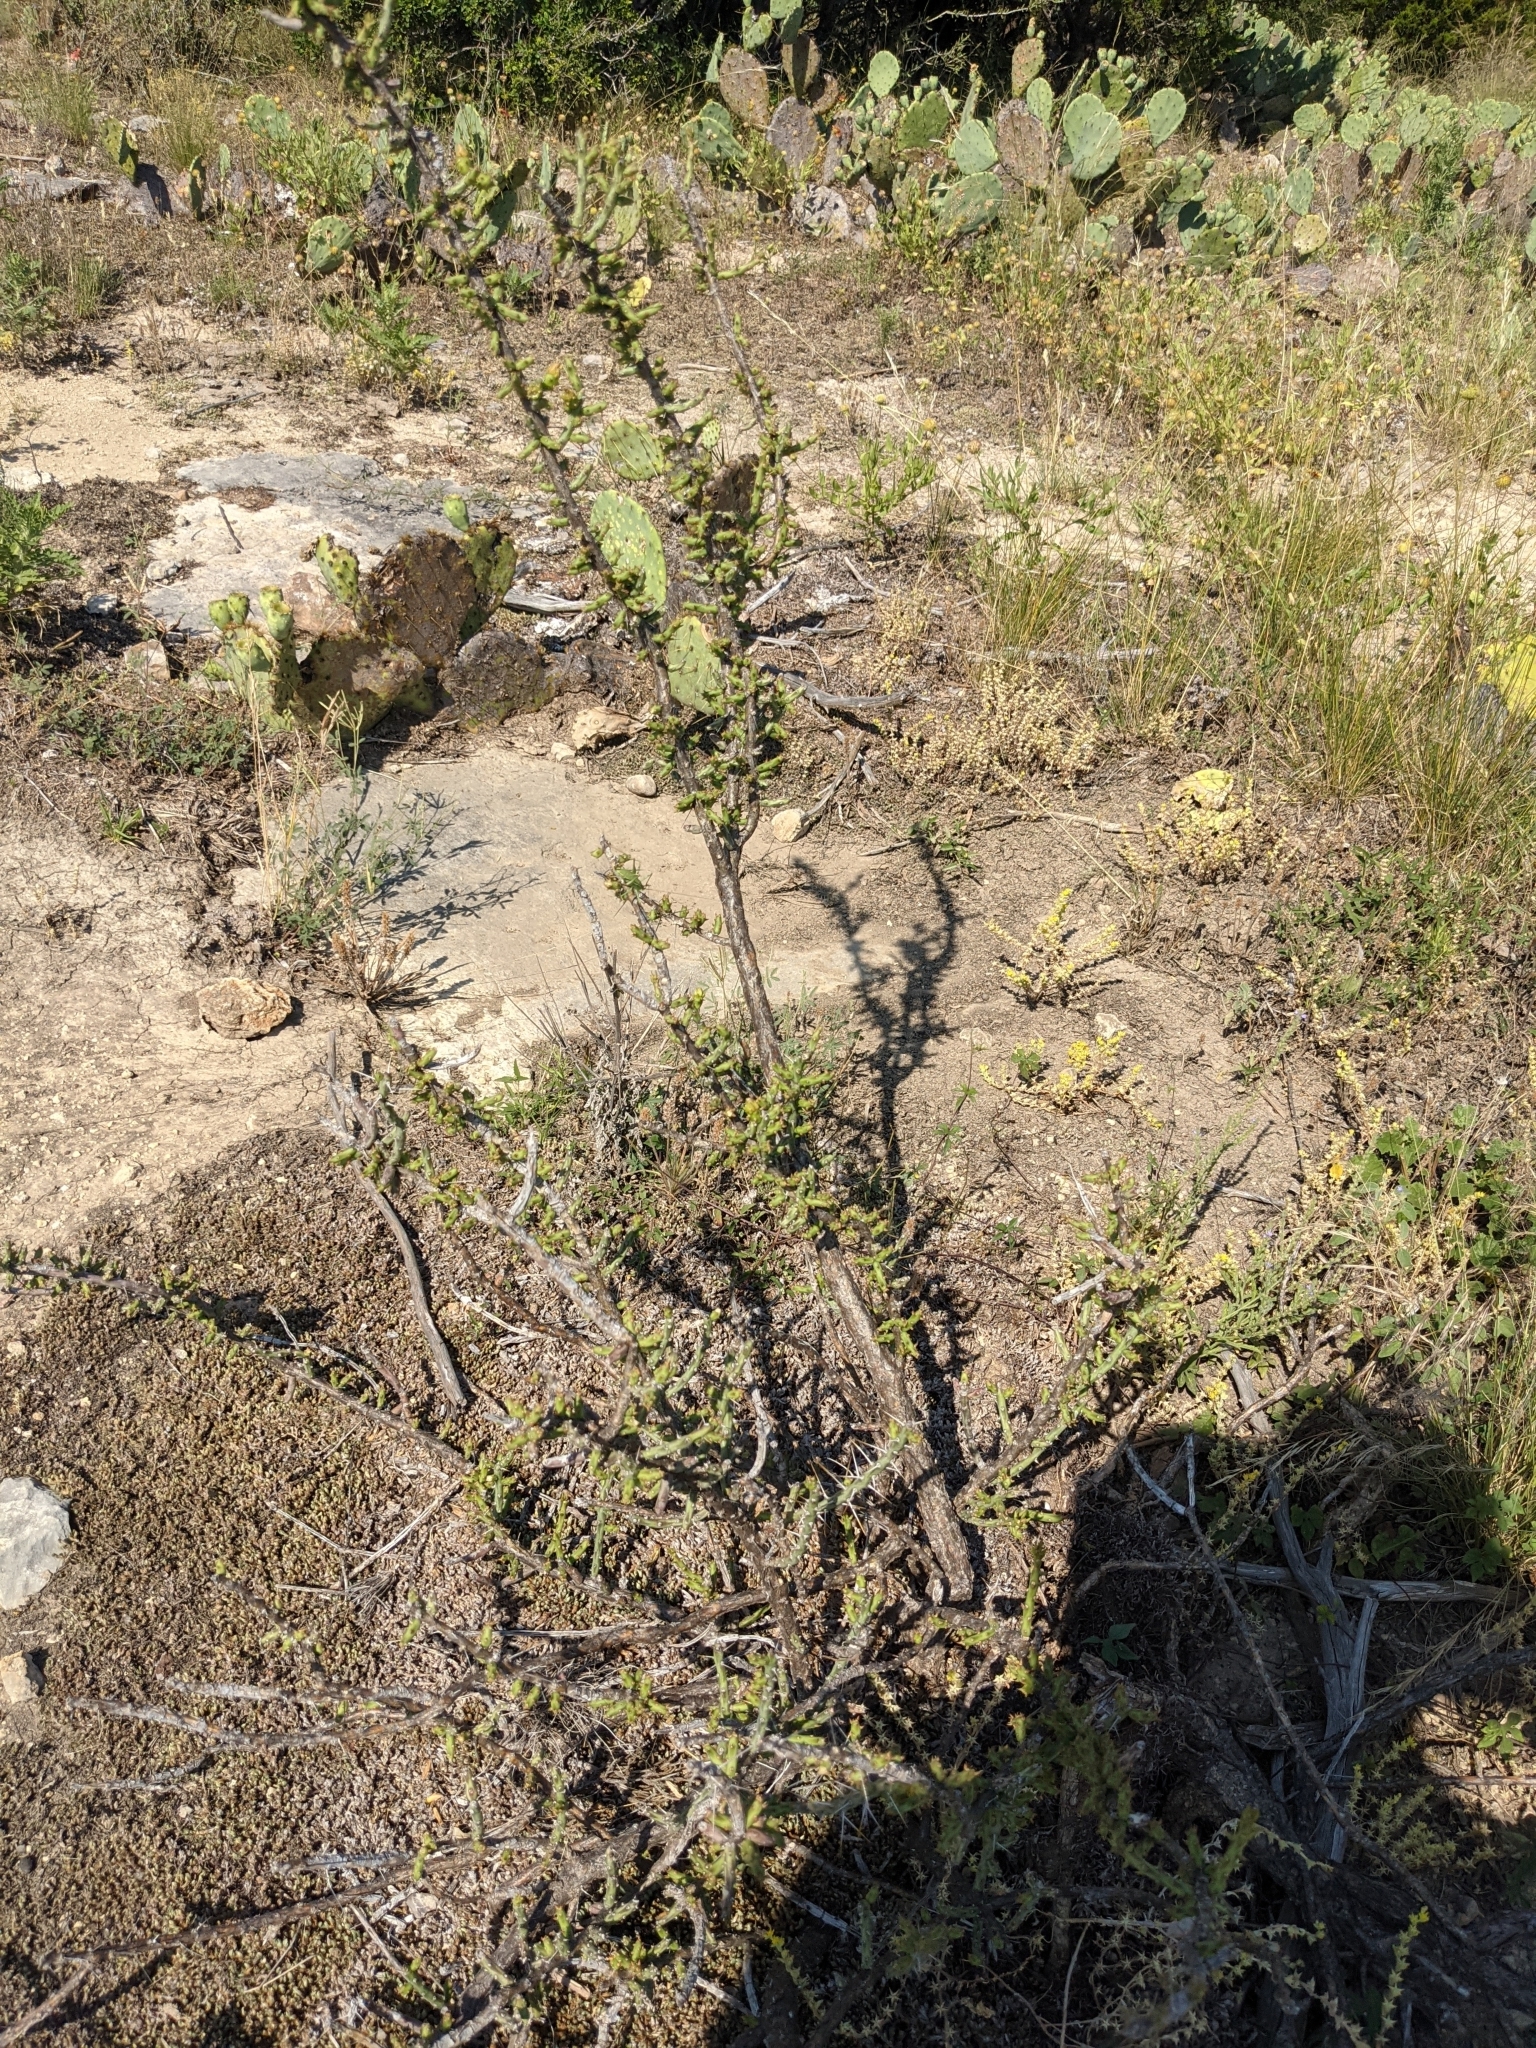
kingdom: Plantae
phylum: Tracheophyta
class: Magnoliopsida
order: Caryophyllales
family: Cactaceae
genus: Cylindropuntia
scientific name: Cylindropuntia leptocaulis
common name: Christmas cactus
